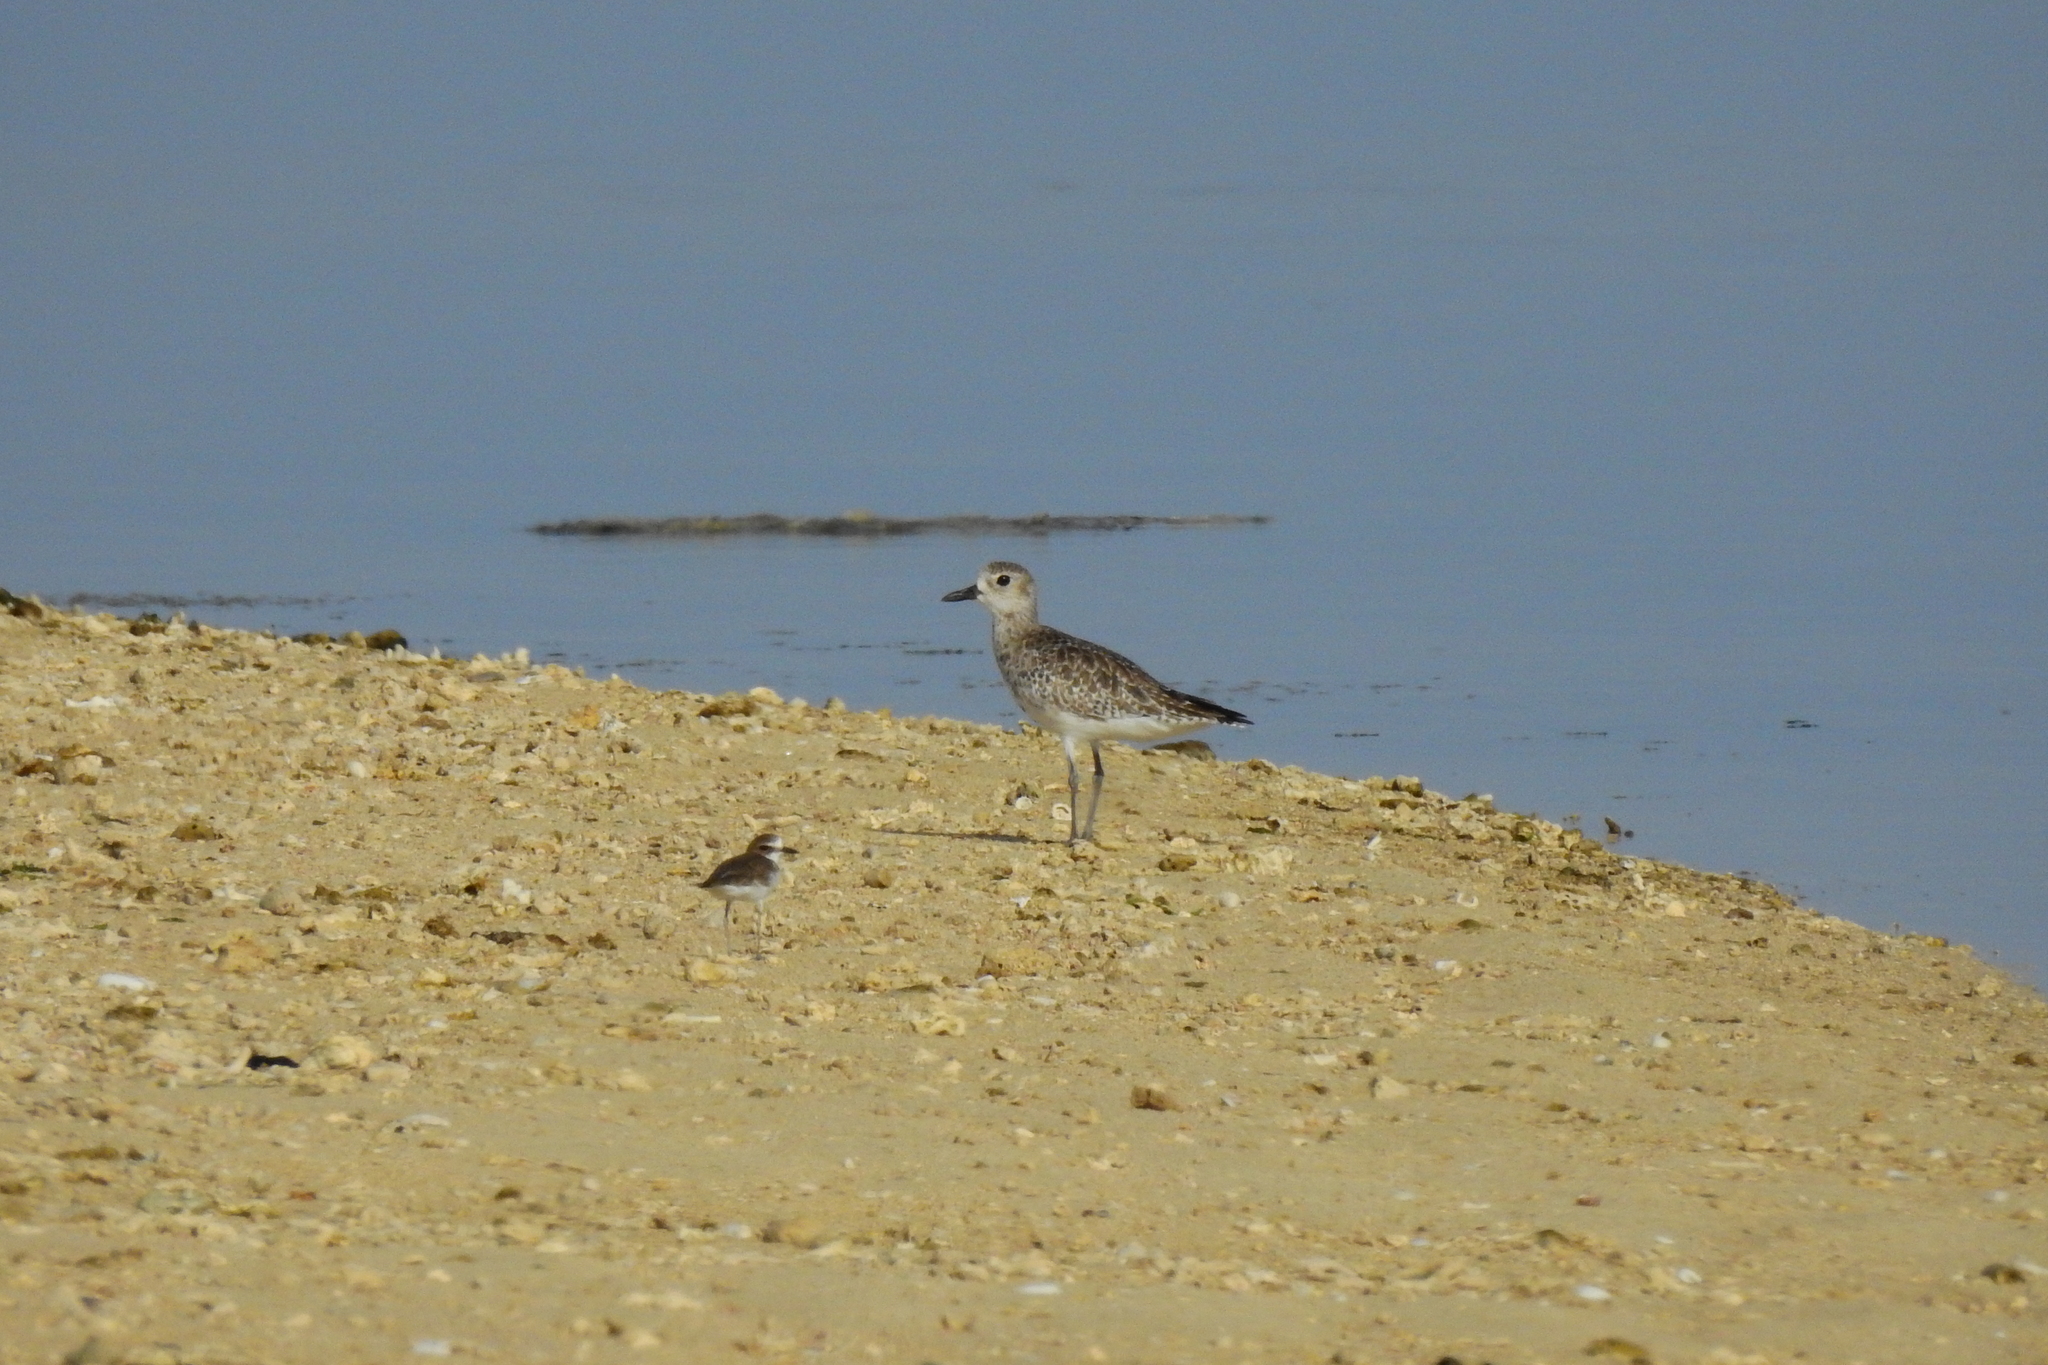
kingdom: Animalia
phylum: Chordata
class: Aves
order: Charadriiformes
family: Charadriidae
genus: Pluvialis
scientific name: Pluvialis squatarola
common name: Grey plover
